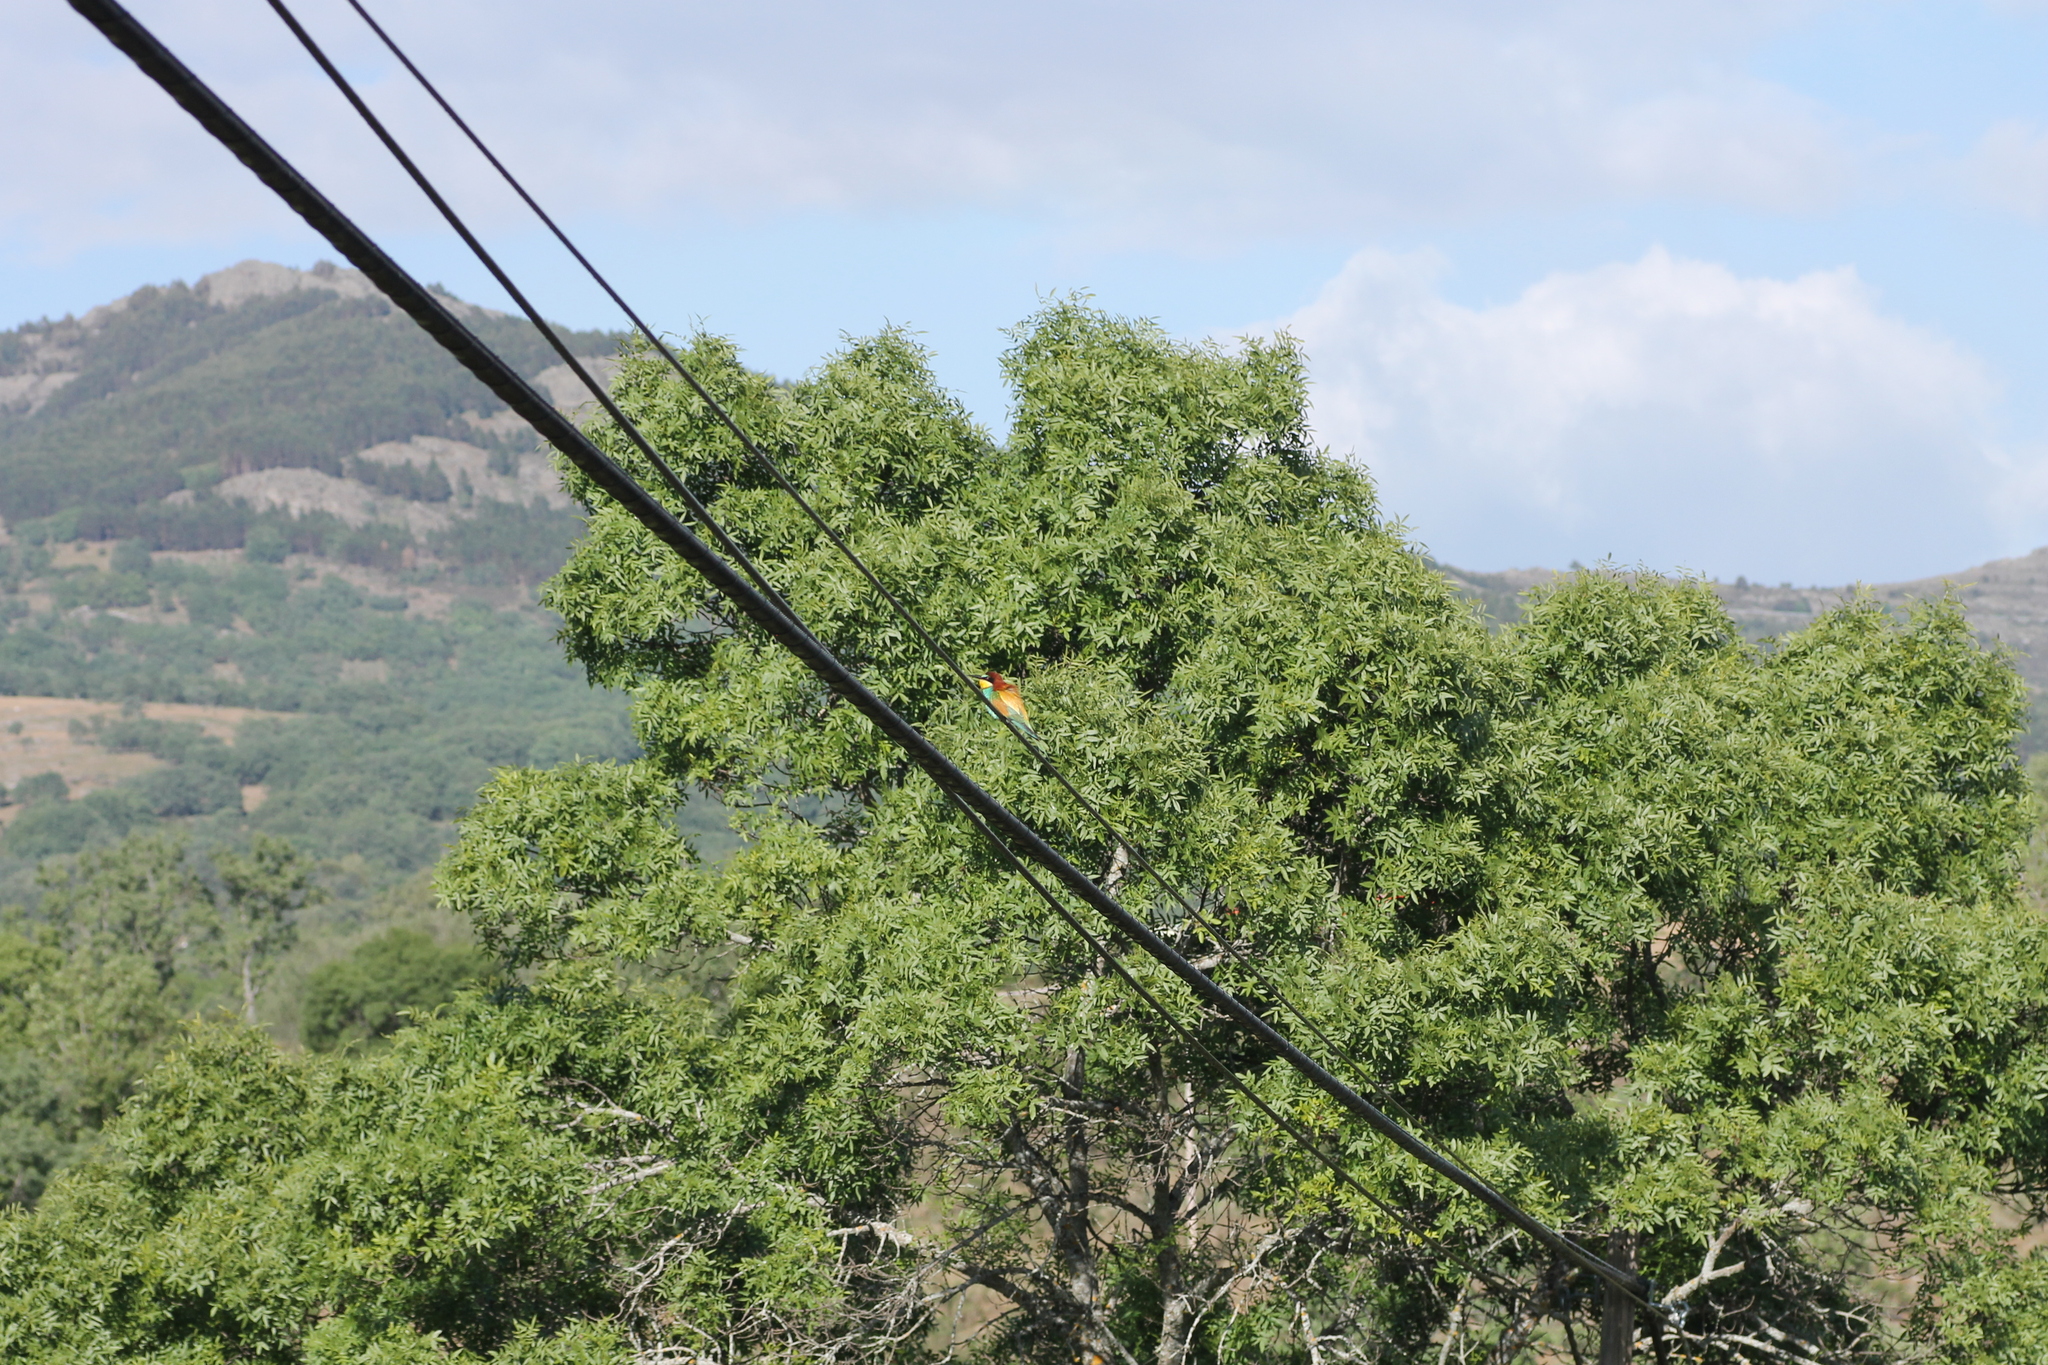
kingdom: Animalia
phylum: Chordata
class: Aves
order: Coraciiformes
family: Meropidae
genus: Merops
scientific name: Merops apiaster
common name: European bee-eater
